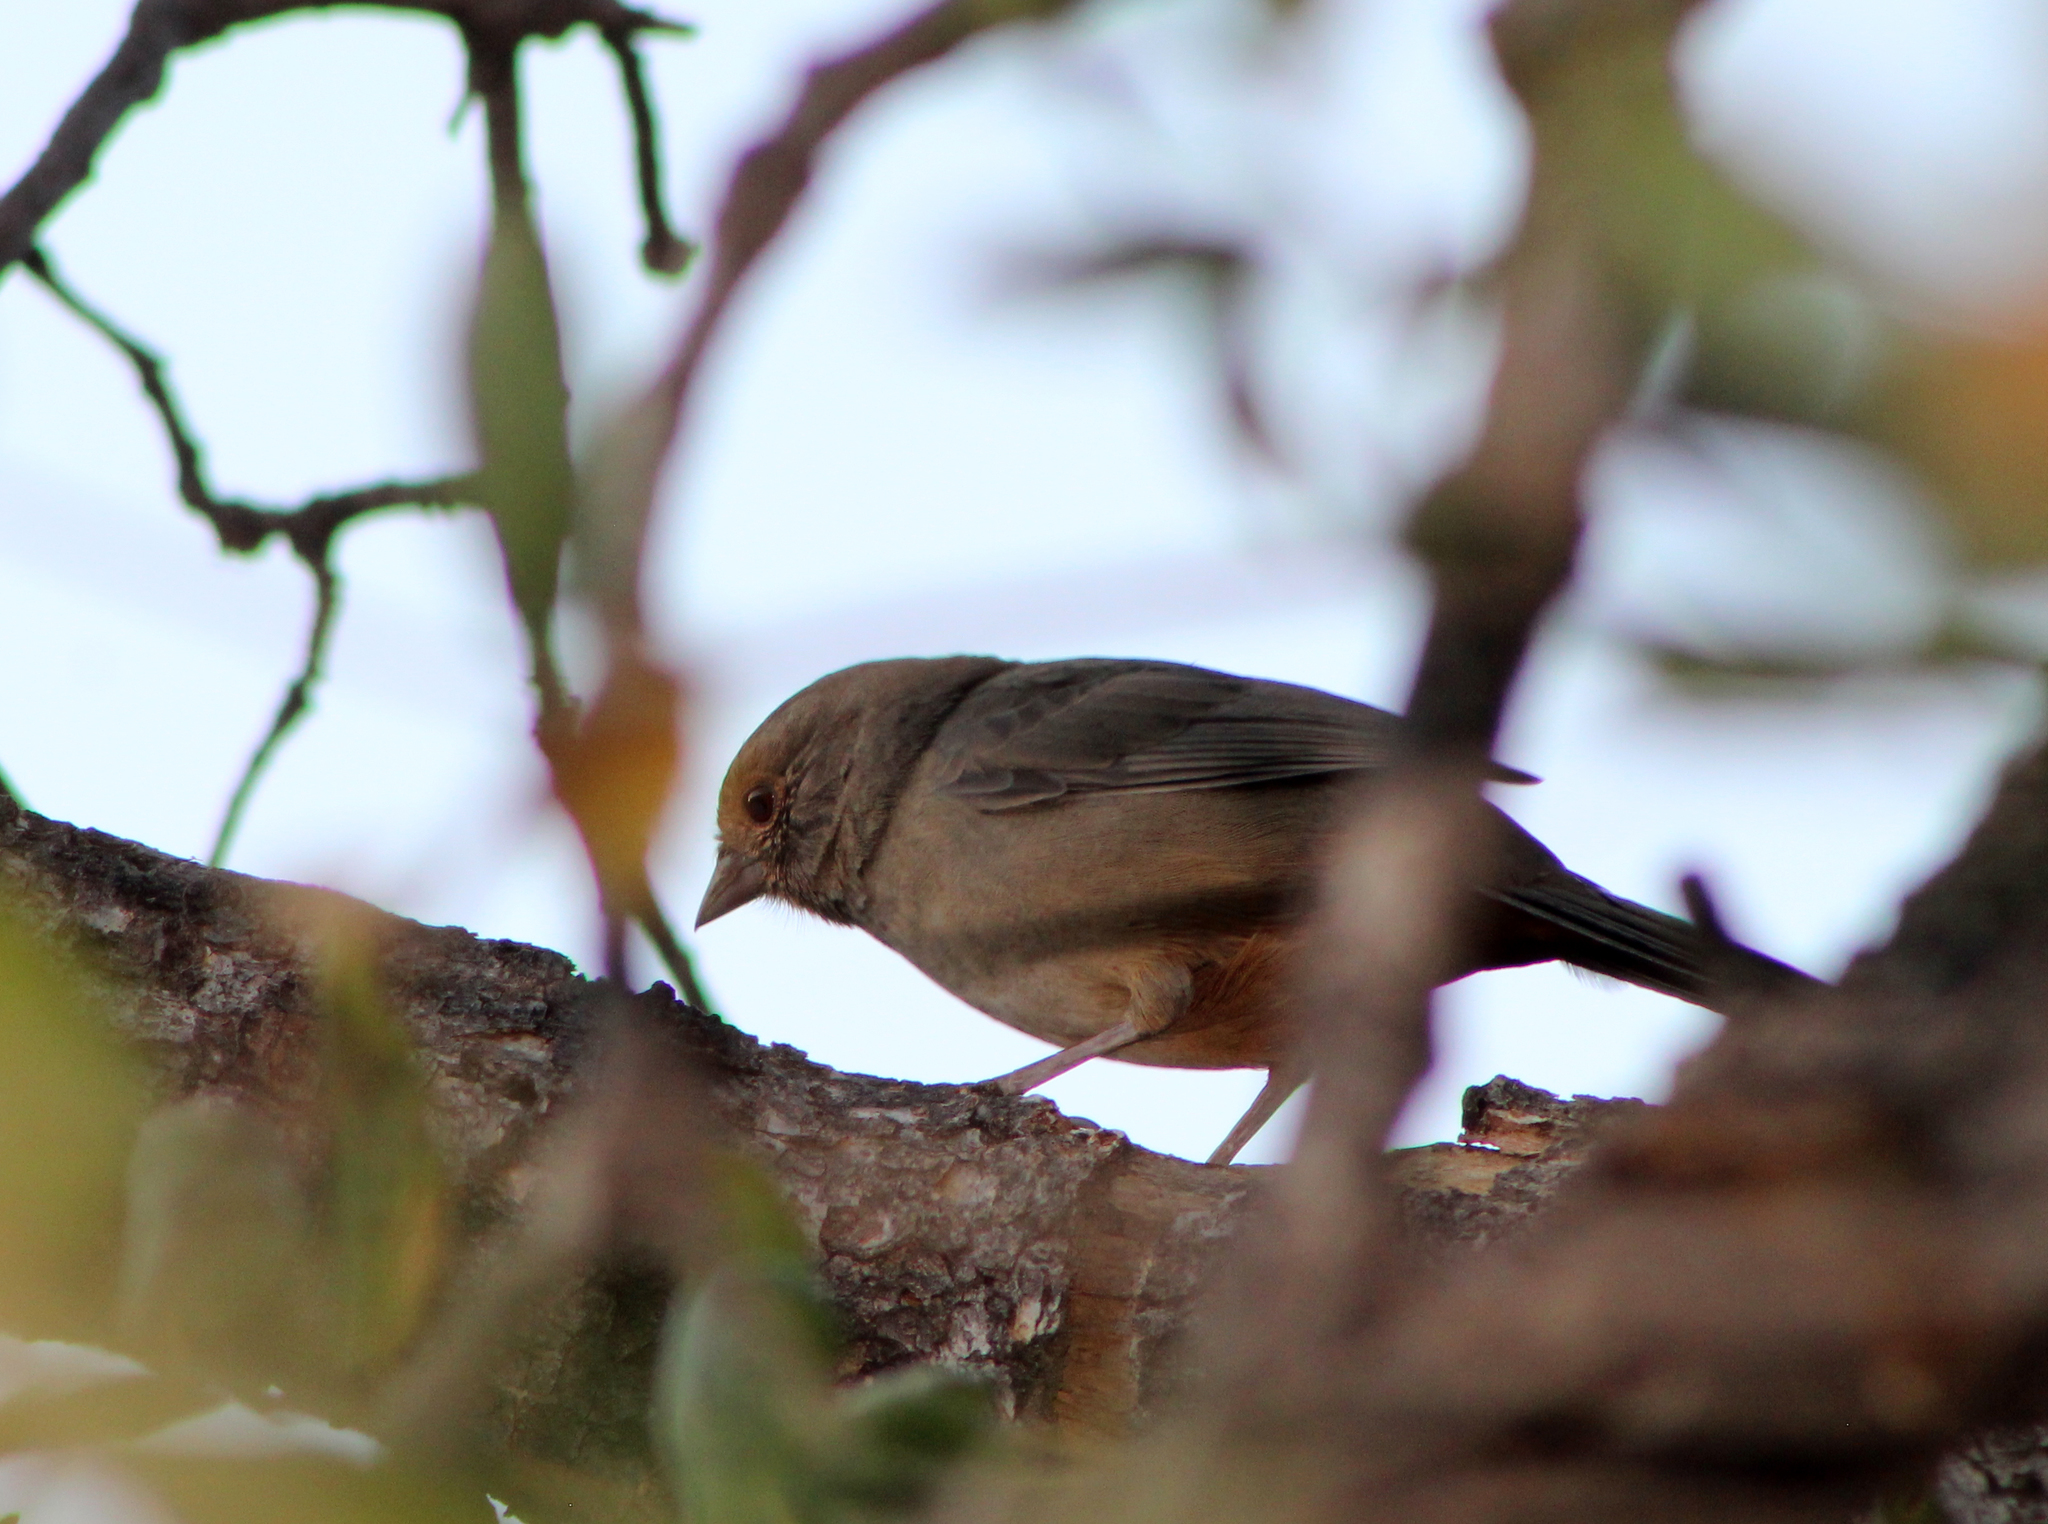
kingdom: Animalia
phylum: Chordata
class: Aves
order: Passeriformes
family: Passerellidae
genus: Melozone
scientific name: Melozone crissalis
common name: California towhee
